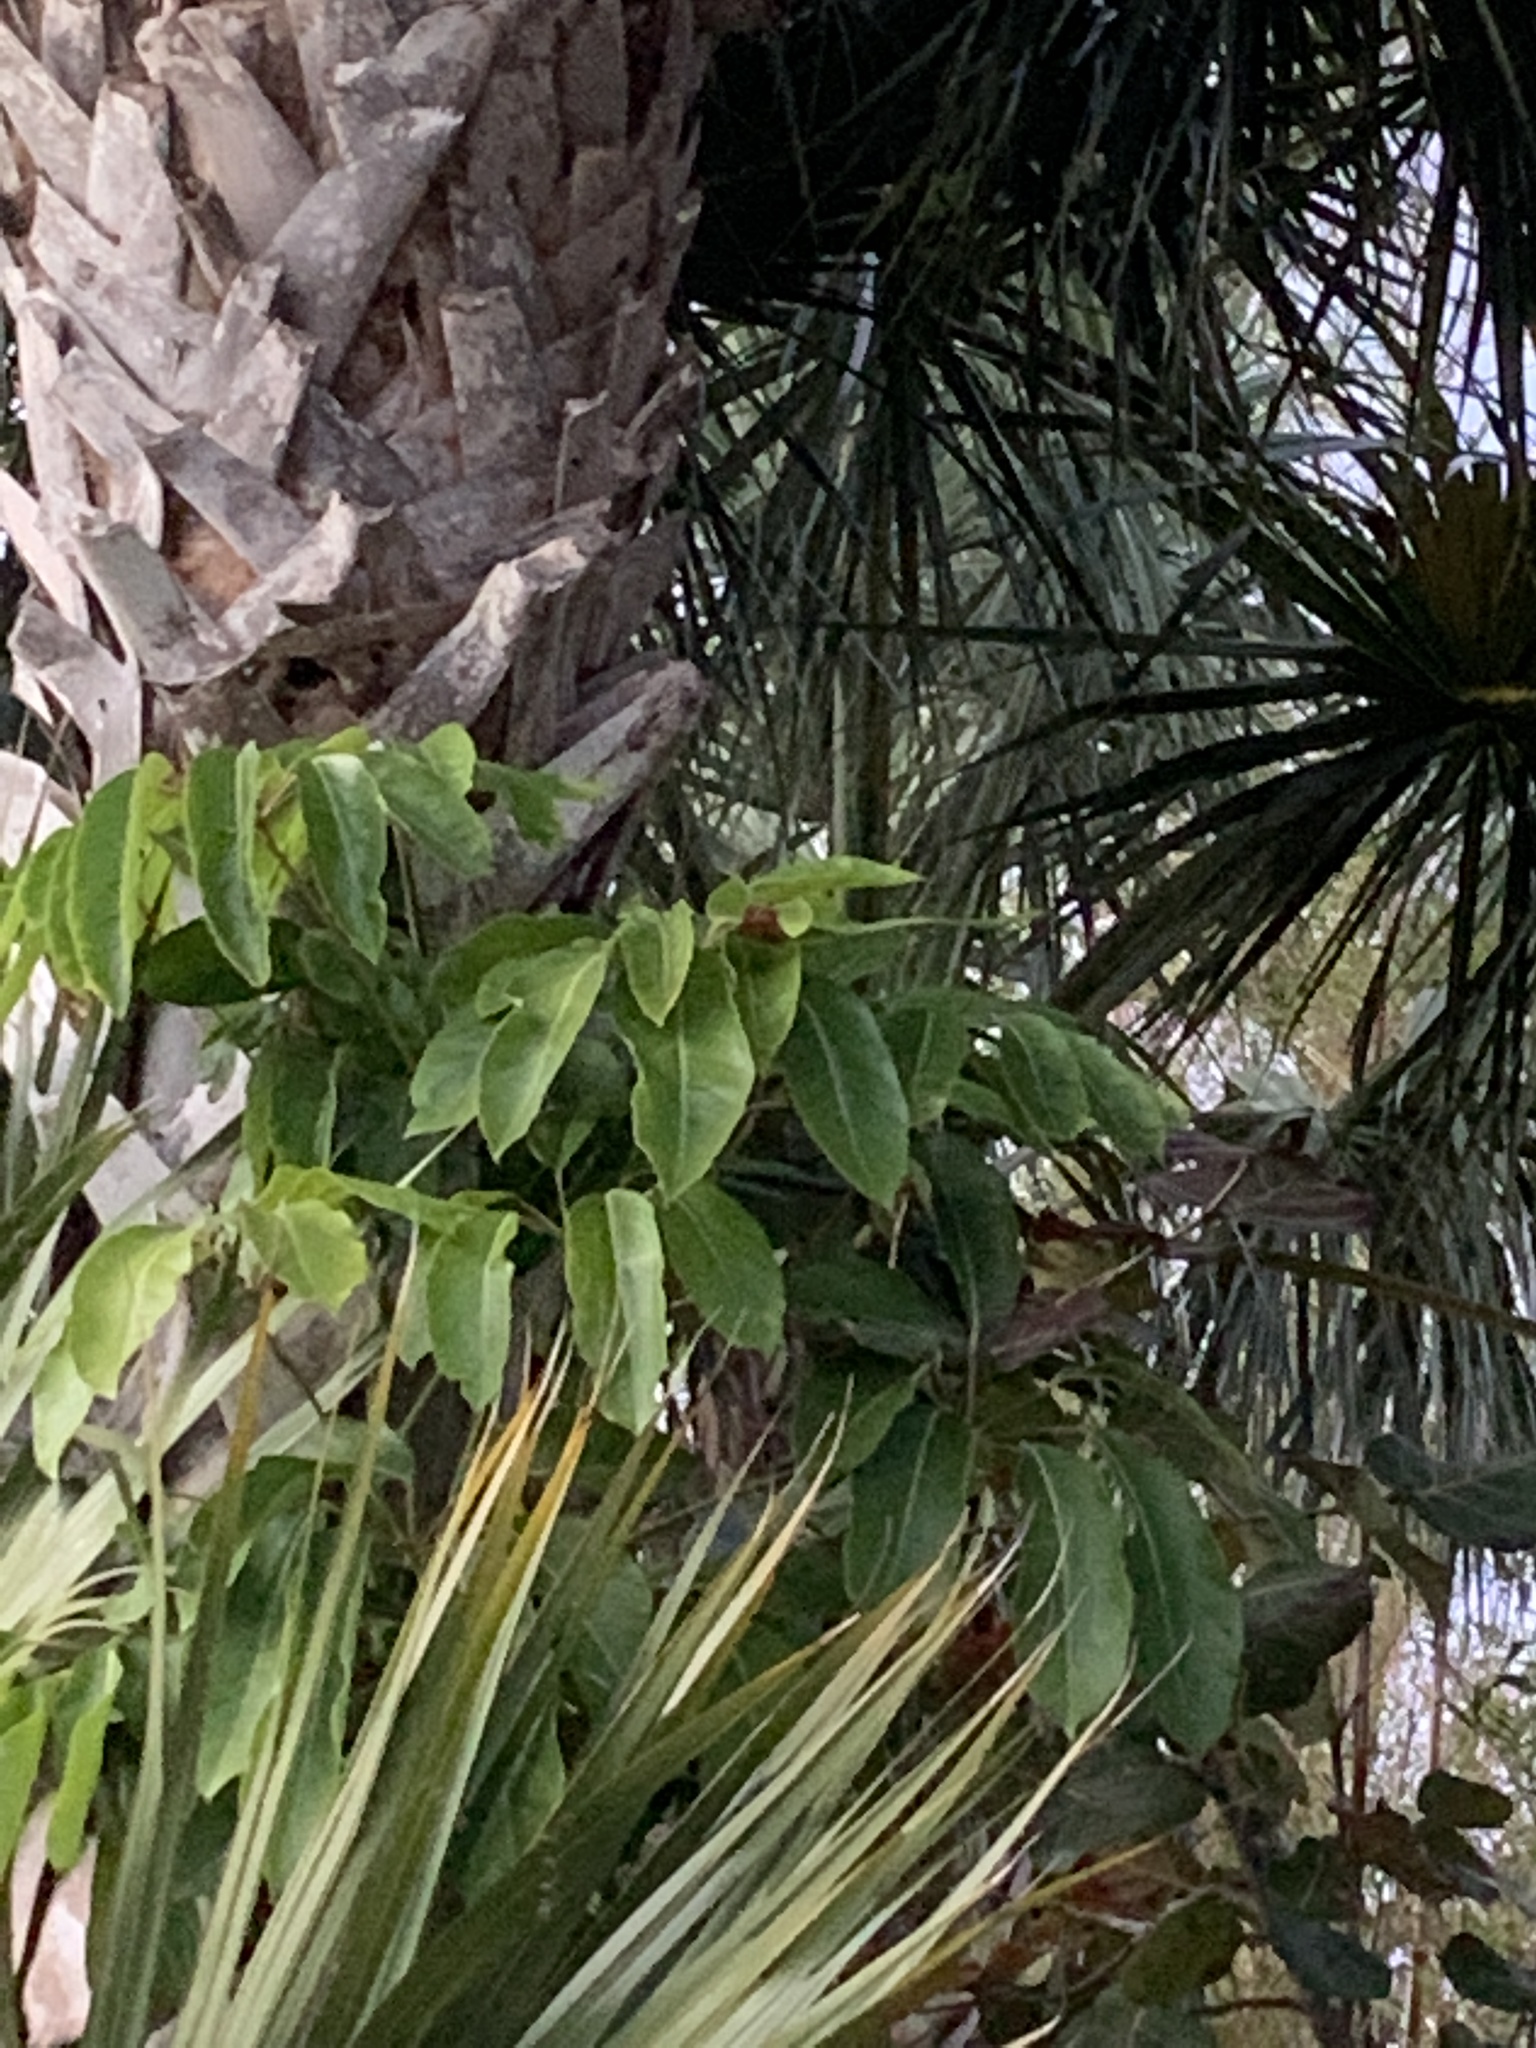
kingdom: Plantae
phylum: Tracheophyta
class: Magnoliopsida
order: Apiales
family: Araliaceae
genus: Heptapleurum
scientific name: Heptapleurum actinophyllum
